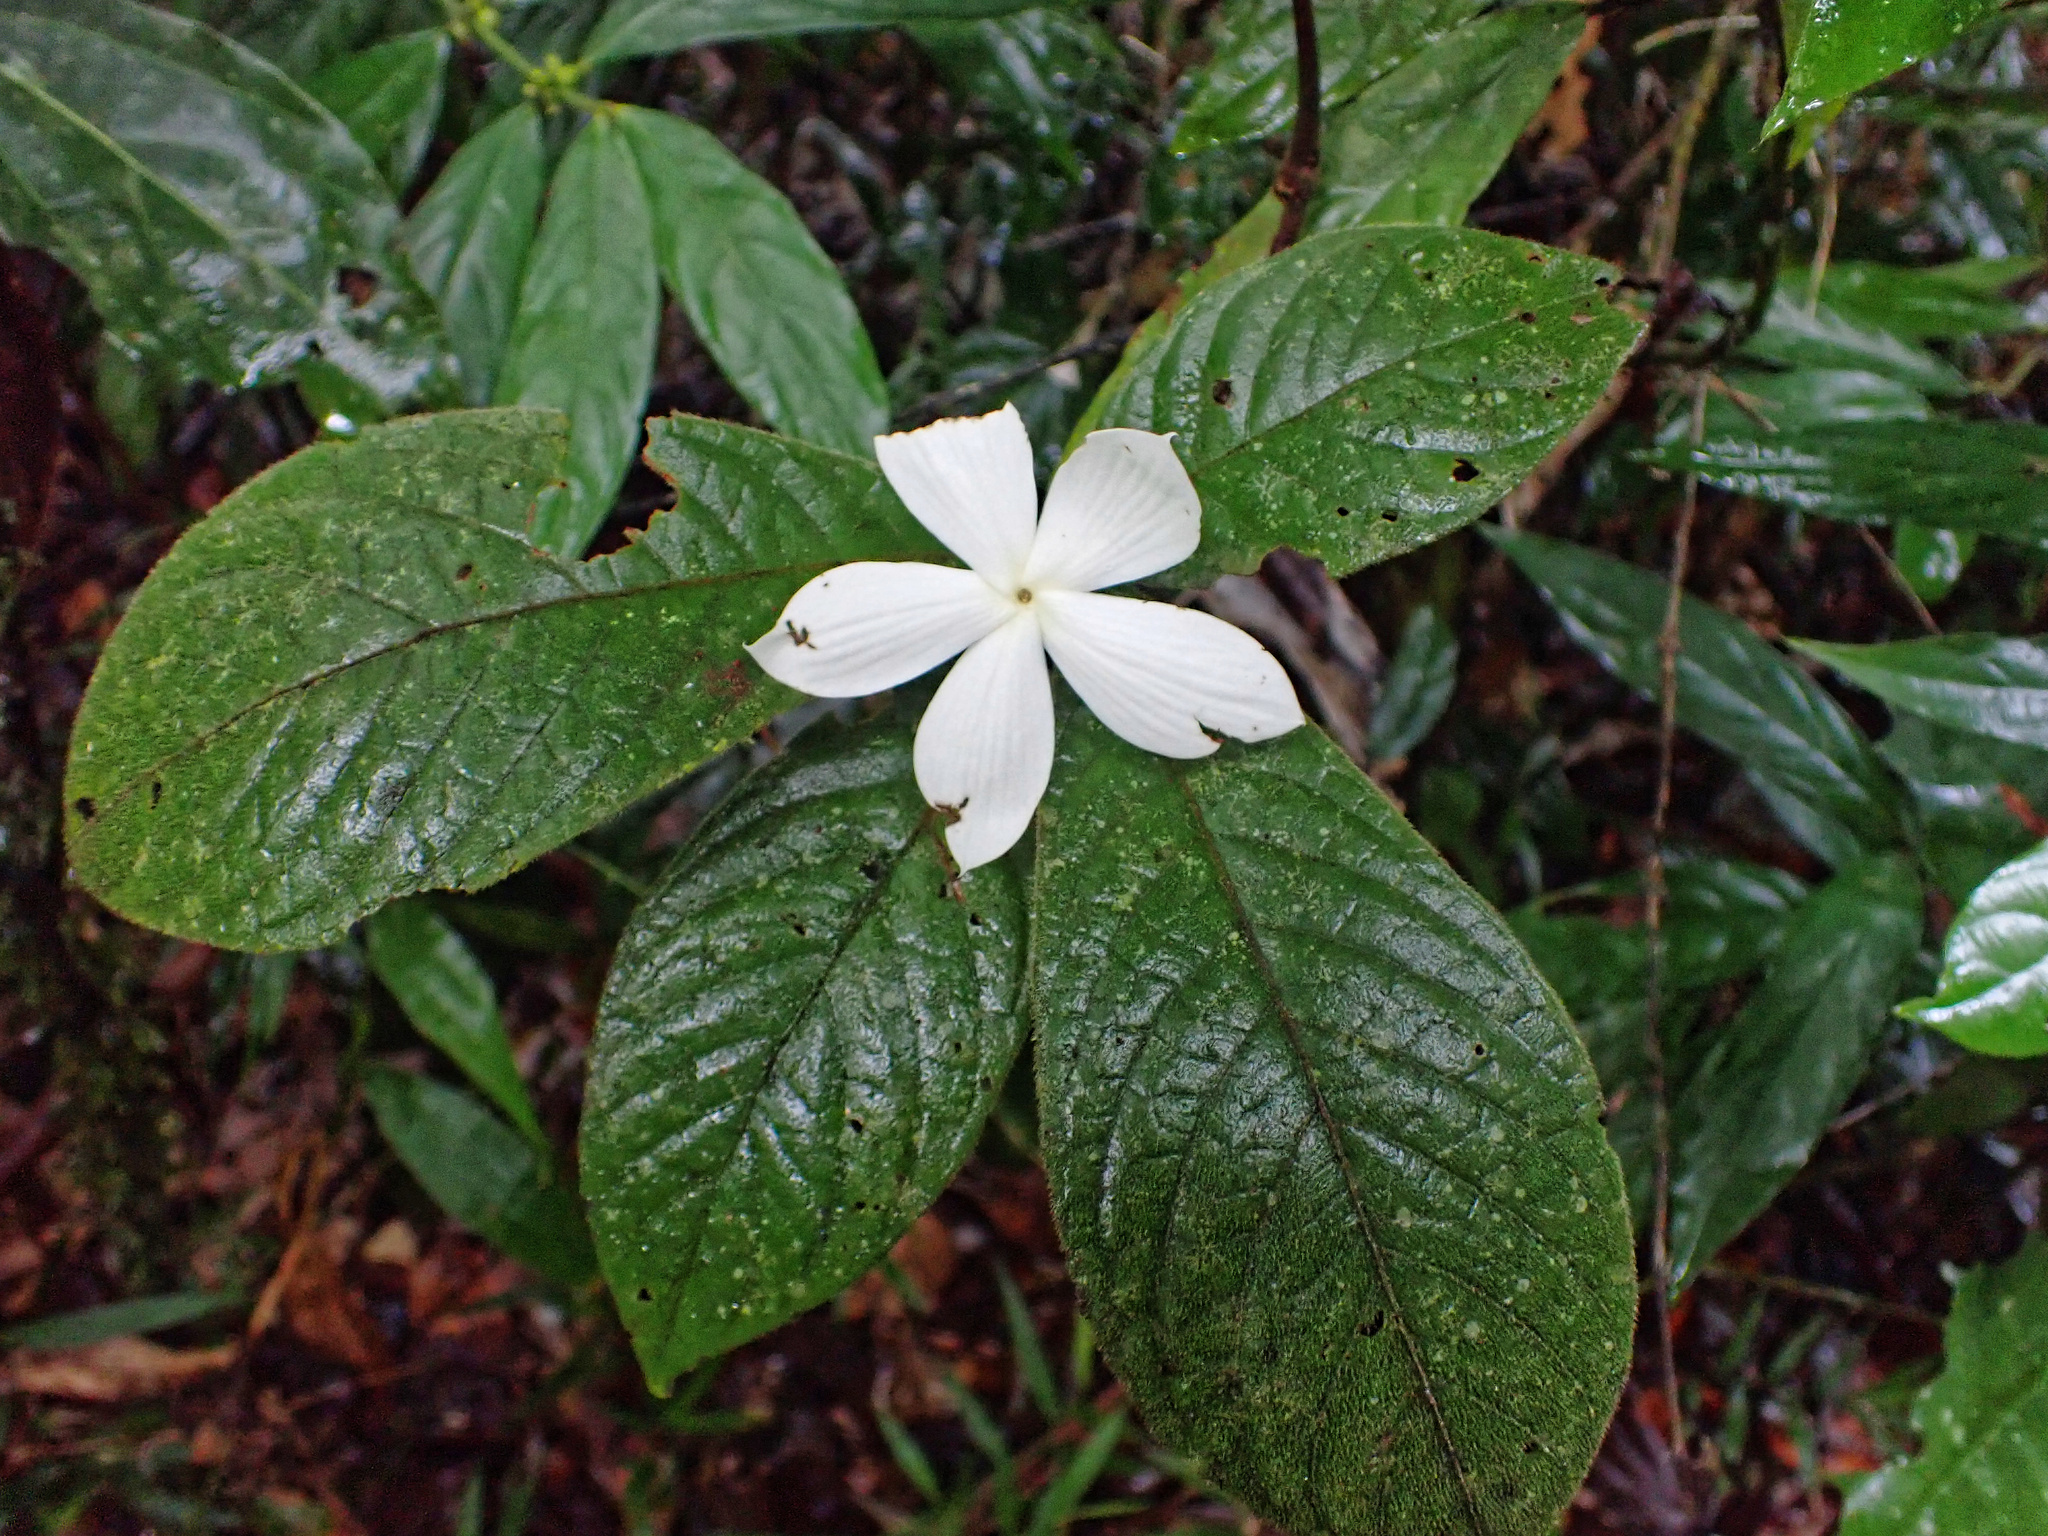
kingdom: Plantae
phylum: Tracheophyta
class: Magnoliopsida
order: Gentianales
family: Rubiaceae
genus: Atractocarpus
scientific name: Atractocarpus hirtus
